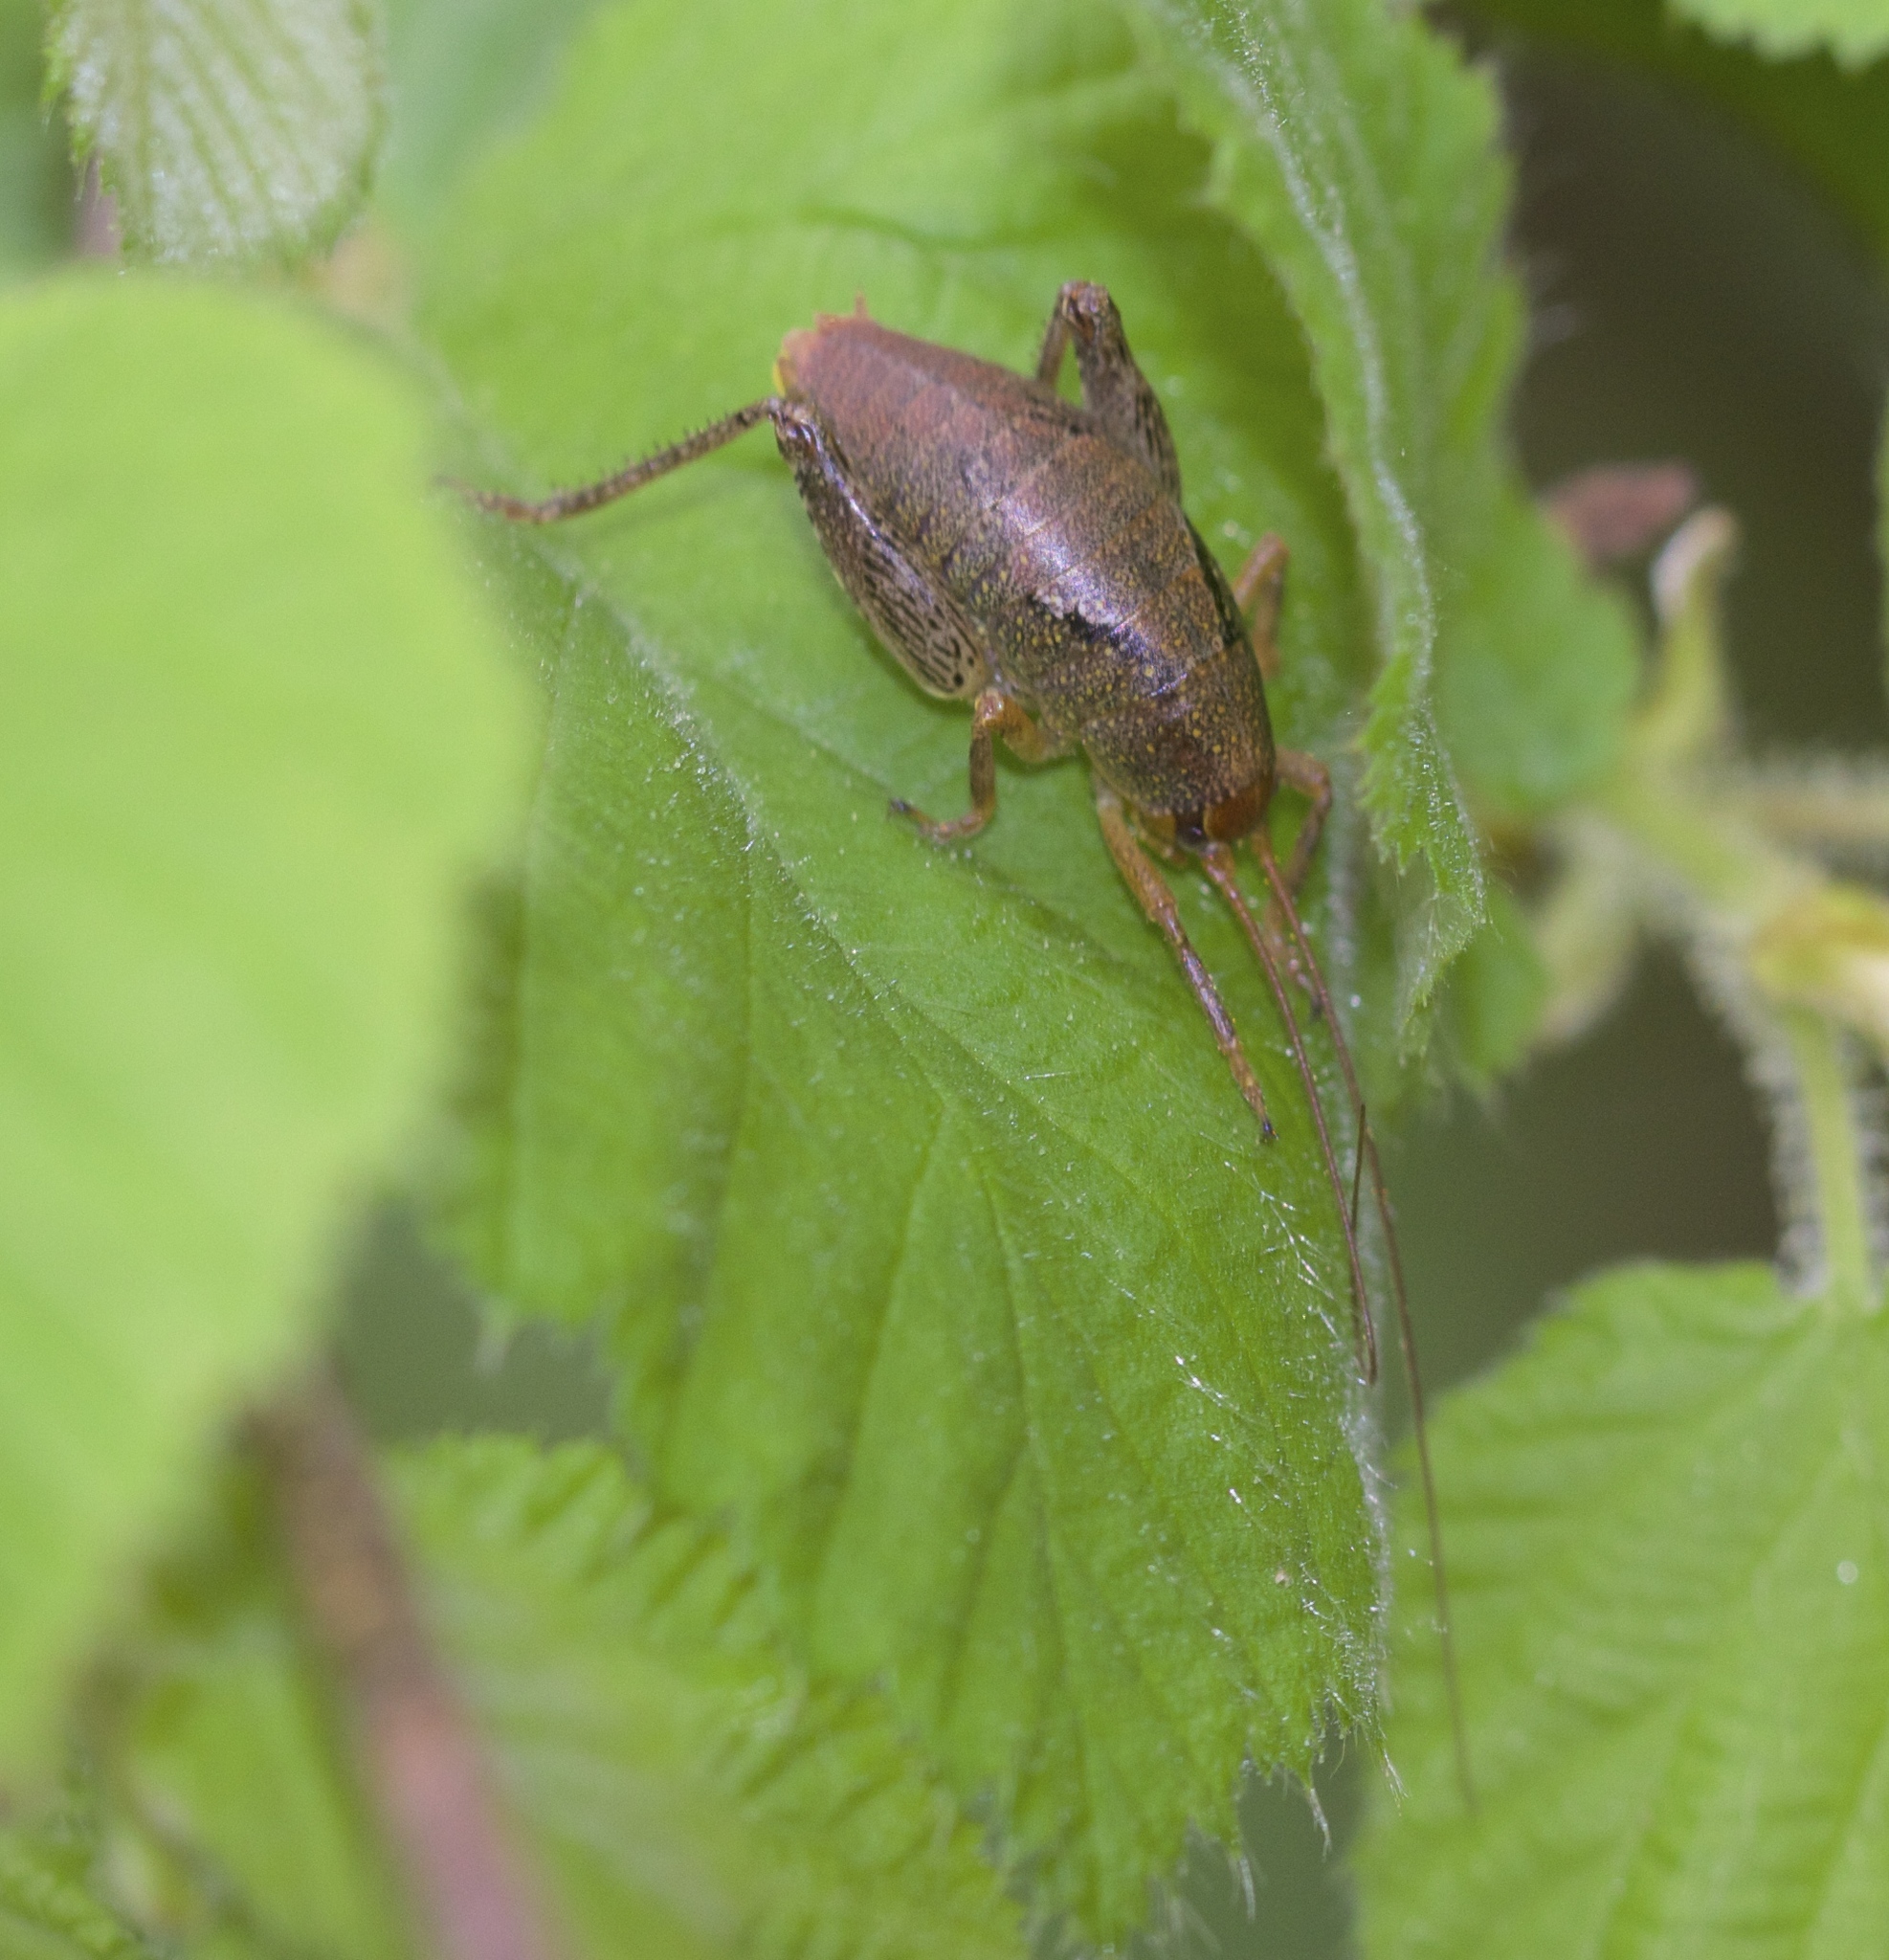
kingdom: Animalia
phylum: Arthropoda
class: Insecta
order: Orthoptera
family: Rhaphidophoridae
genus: Gammarotettix
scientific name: Gammarotettix bilobatus
